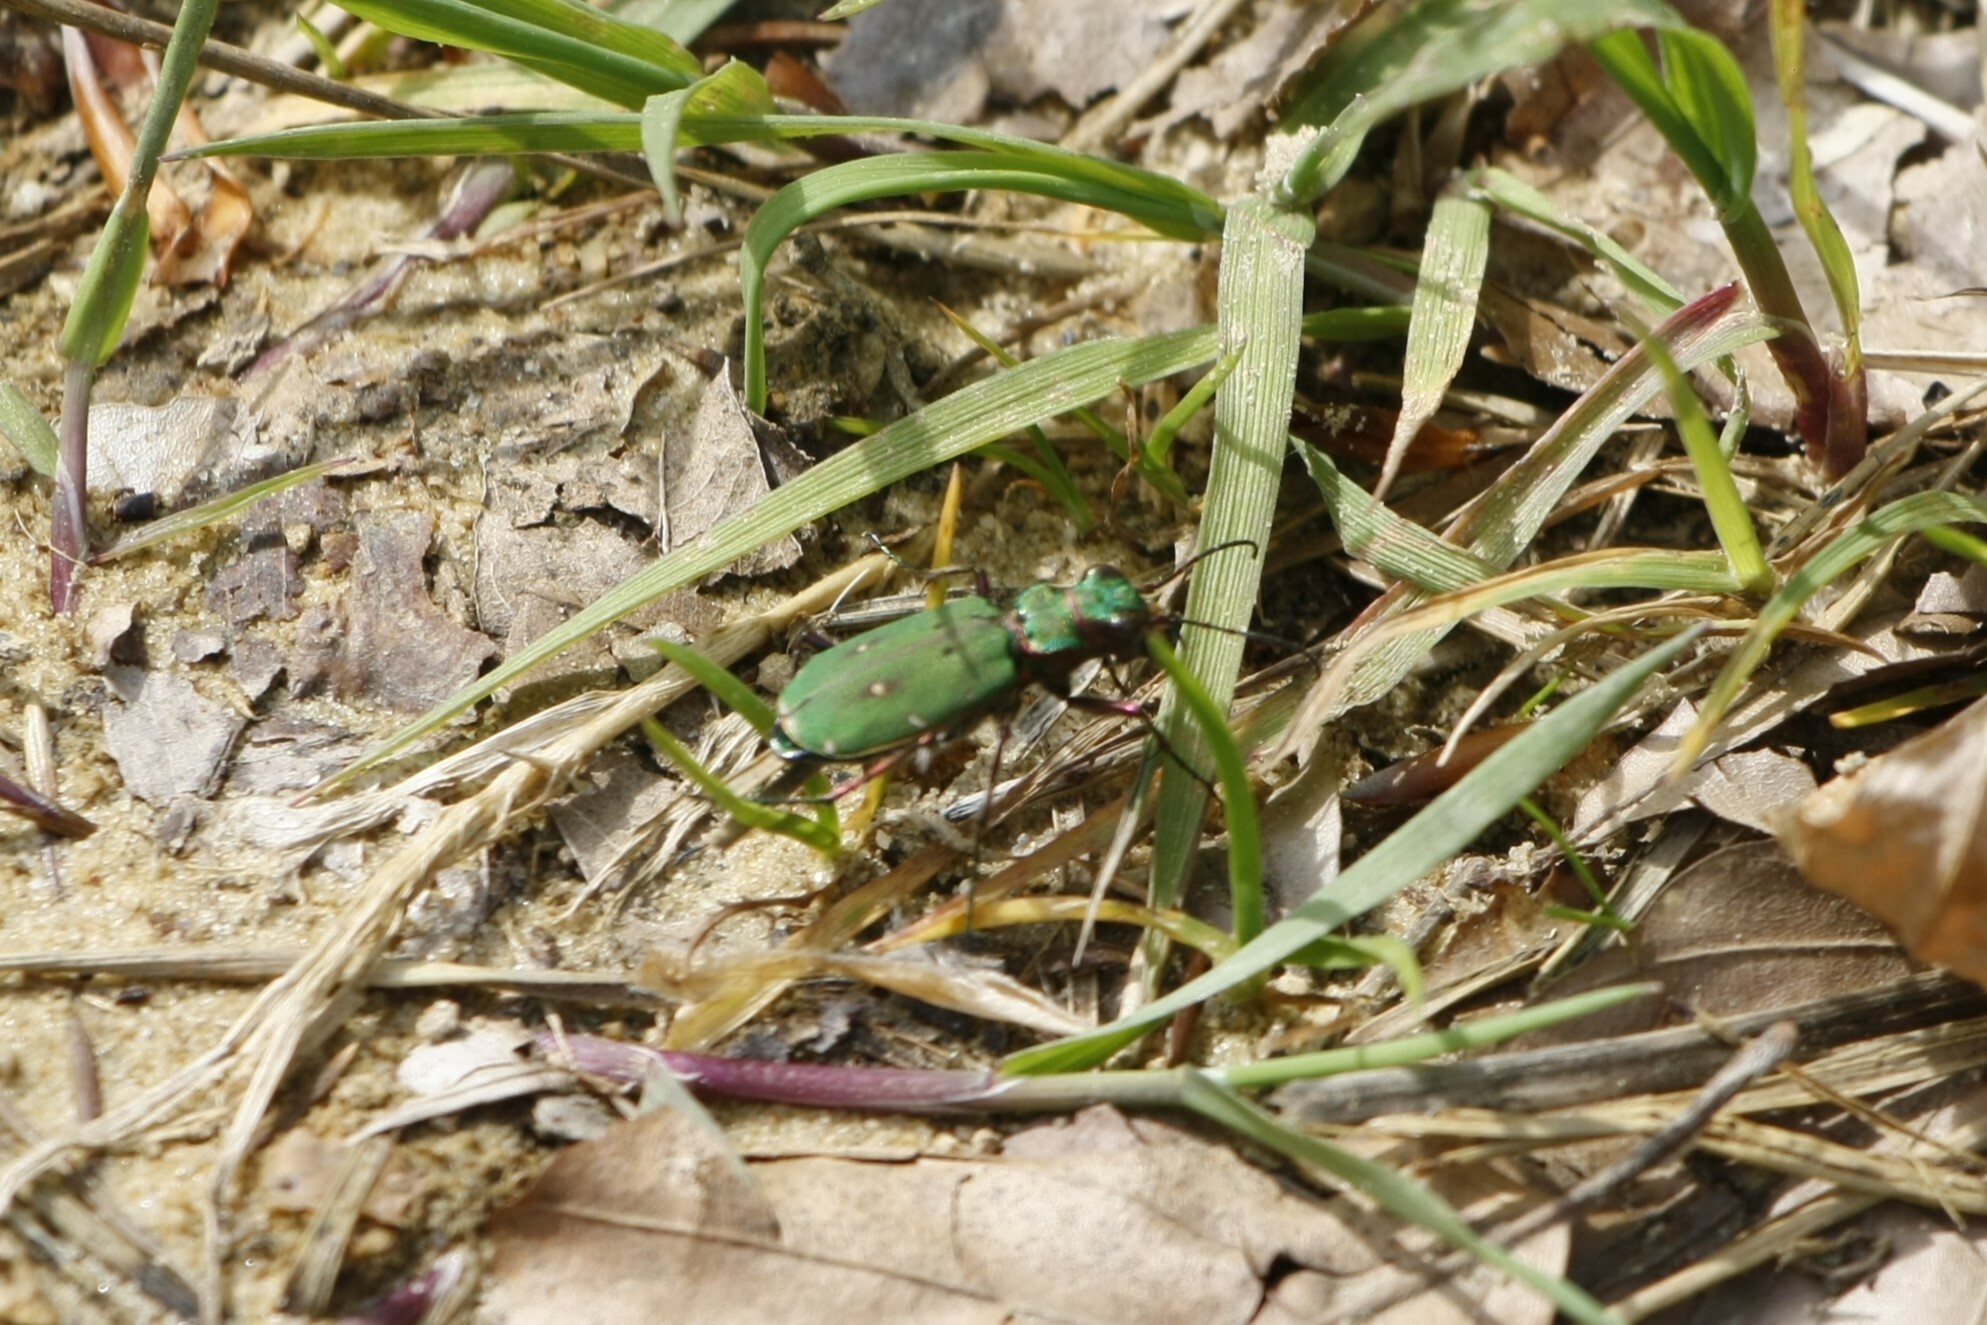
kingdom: Animalia
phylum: Arthropoda
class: Insecta
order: Coleoptera
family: Carabidae
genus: Cicindela
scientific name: Cicindela campestris
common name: Common tiger beetle
